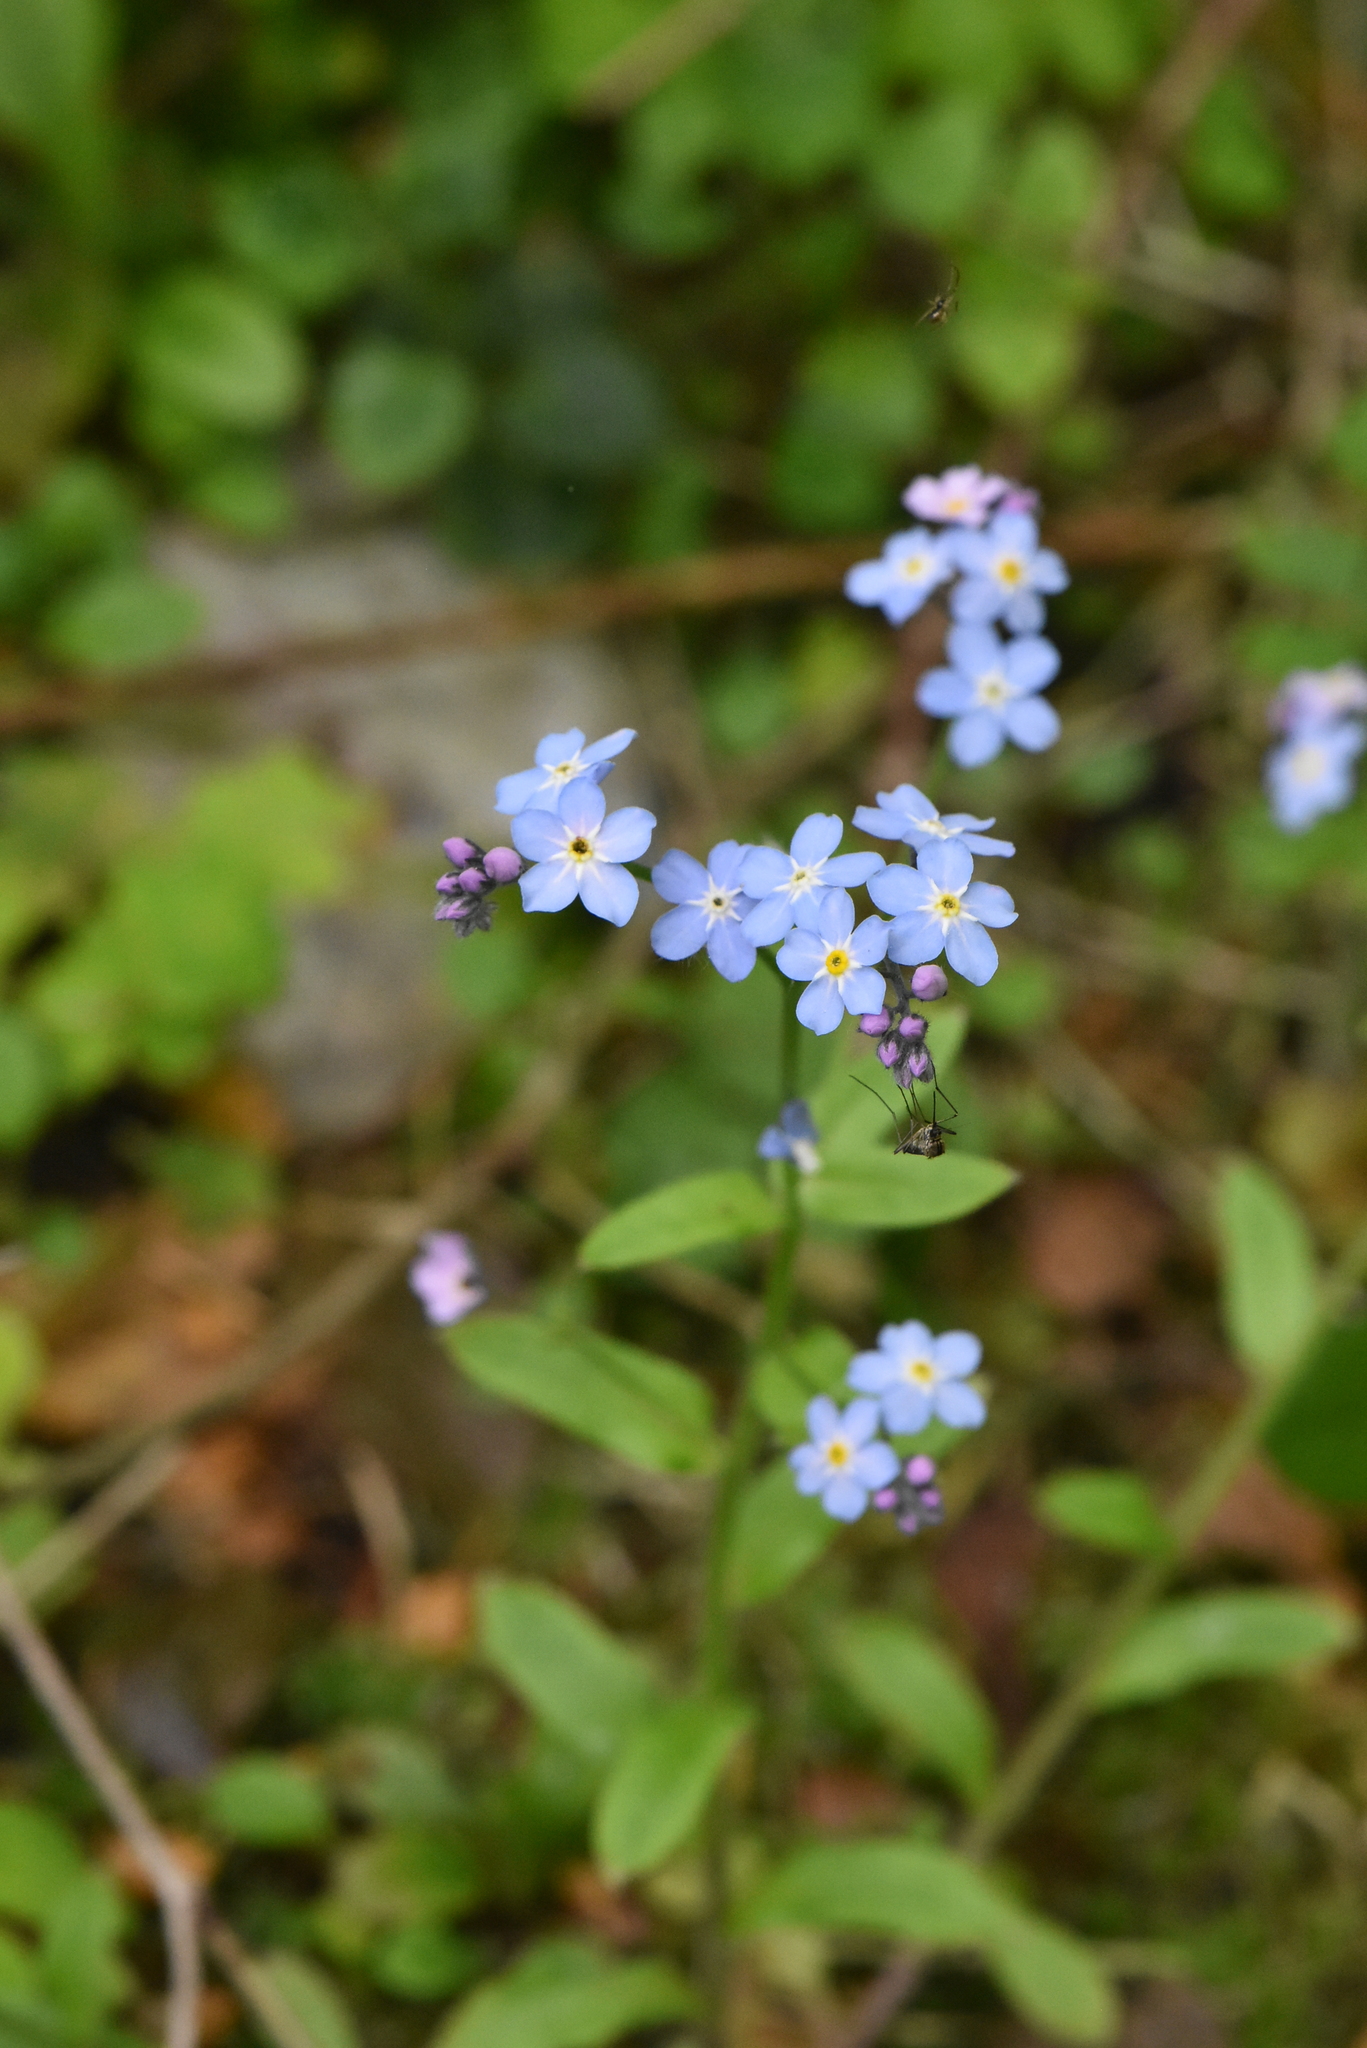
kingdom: Plantae
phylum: Tracheophyta
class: Magnoliopsida
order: Boraginales
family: Boraginaceae
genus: Myosotis
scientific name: Myosotis sylvatica
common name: Wood forget-me-not
